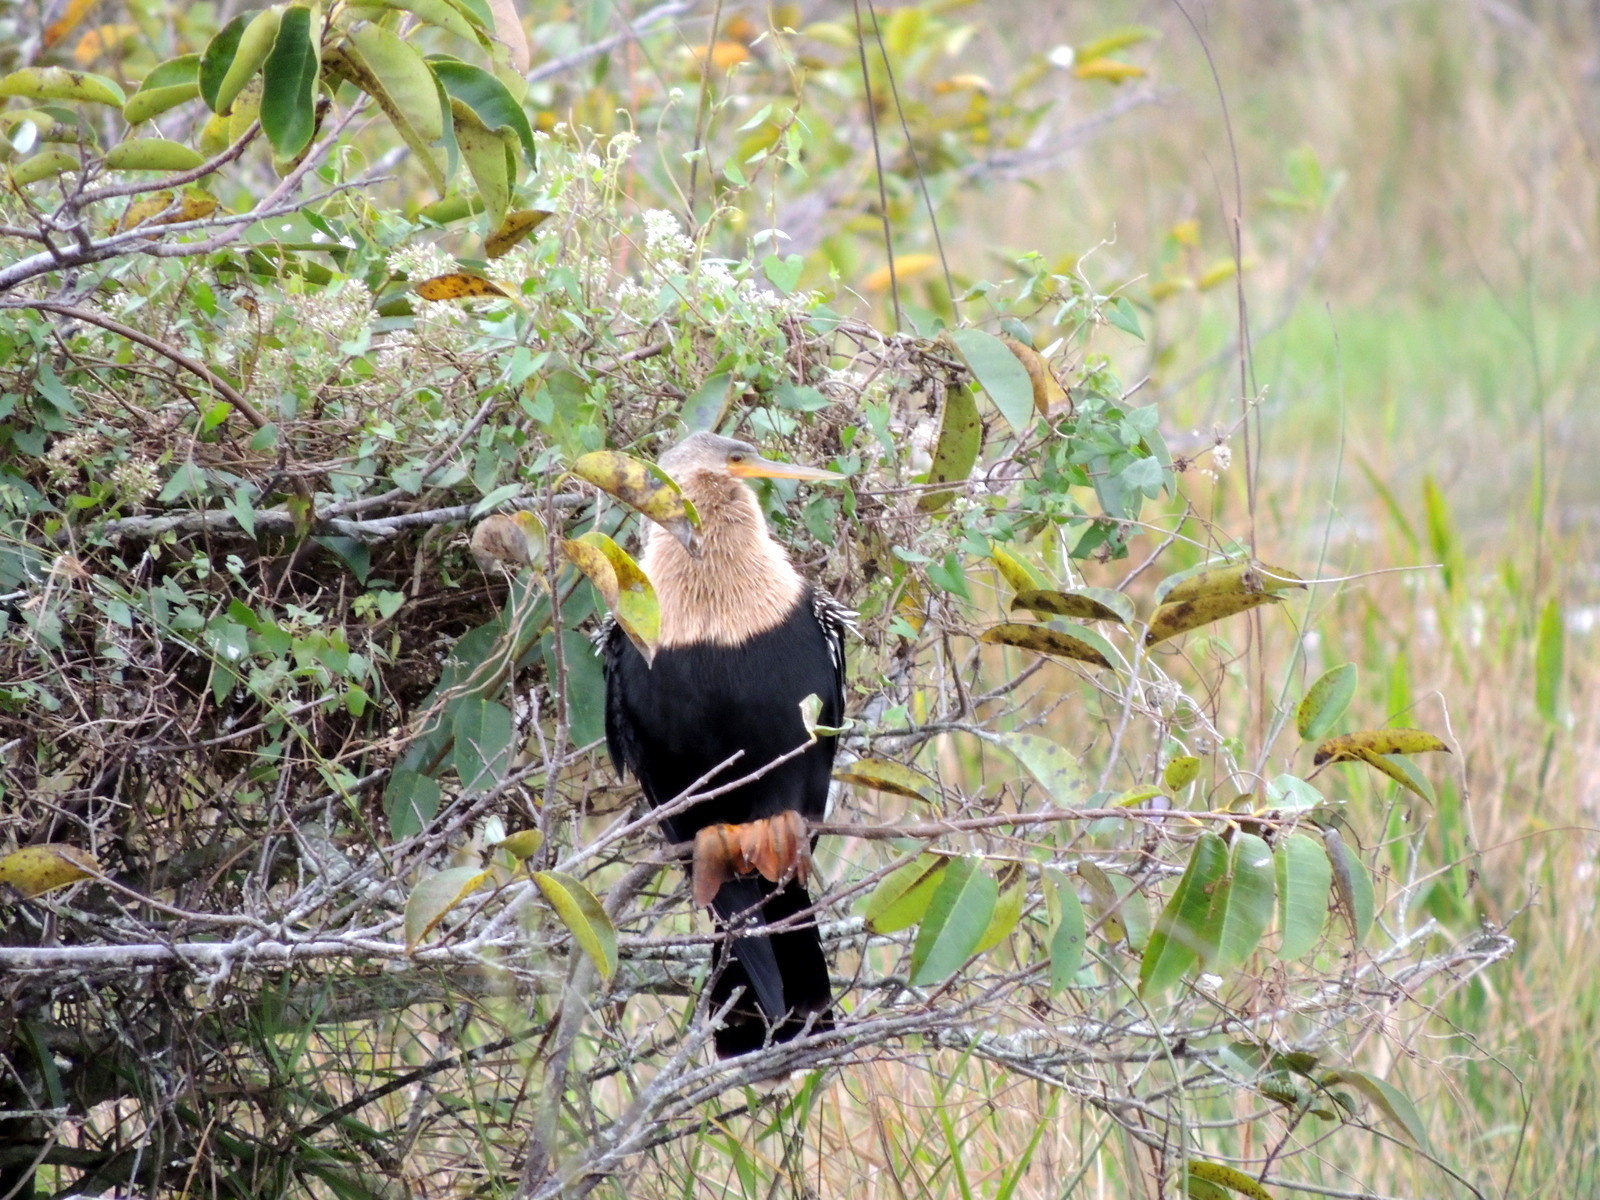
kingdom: Animalia
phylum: Chordata
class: Aves
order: Suliformes
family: Anhingidae
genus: Anhinga
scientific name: Anhinga anhinga
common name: Anhinga
